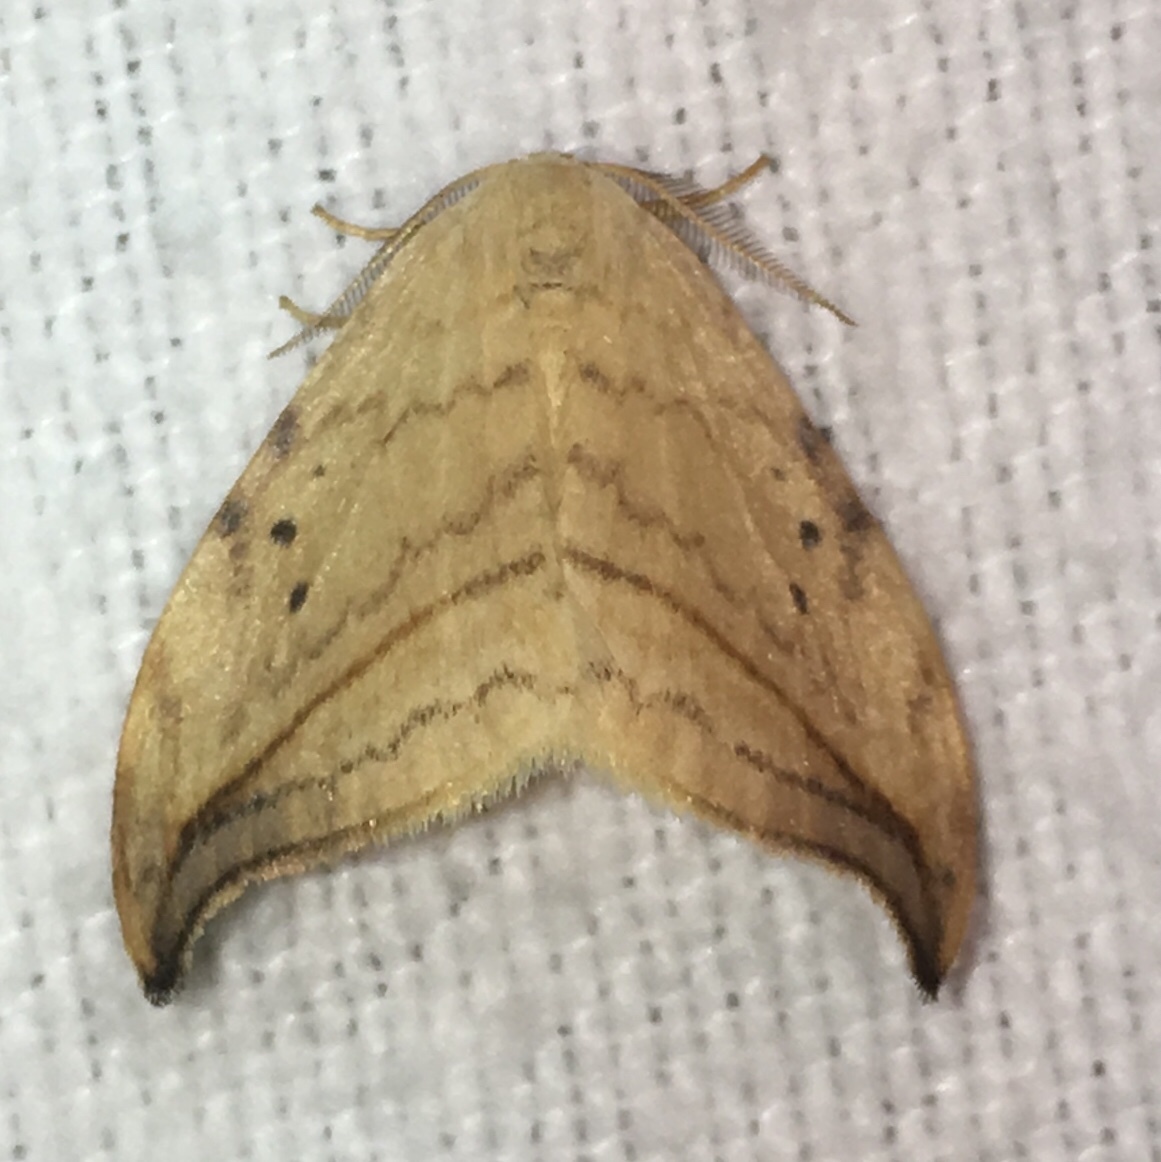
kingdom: Animalia
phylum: Arthropoda
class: Insecta
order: Lepidoptera
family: Drepanidae
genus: Drepana
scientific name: Drepana arcuata
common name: Arched hooktip moth
